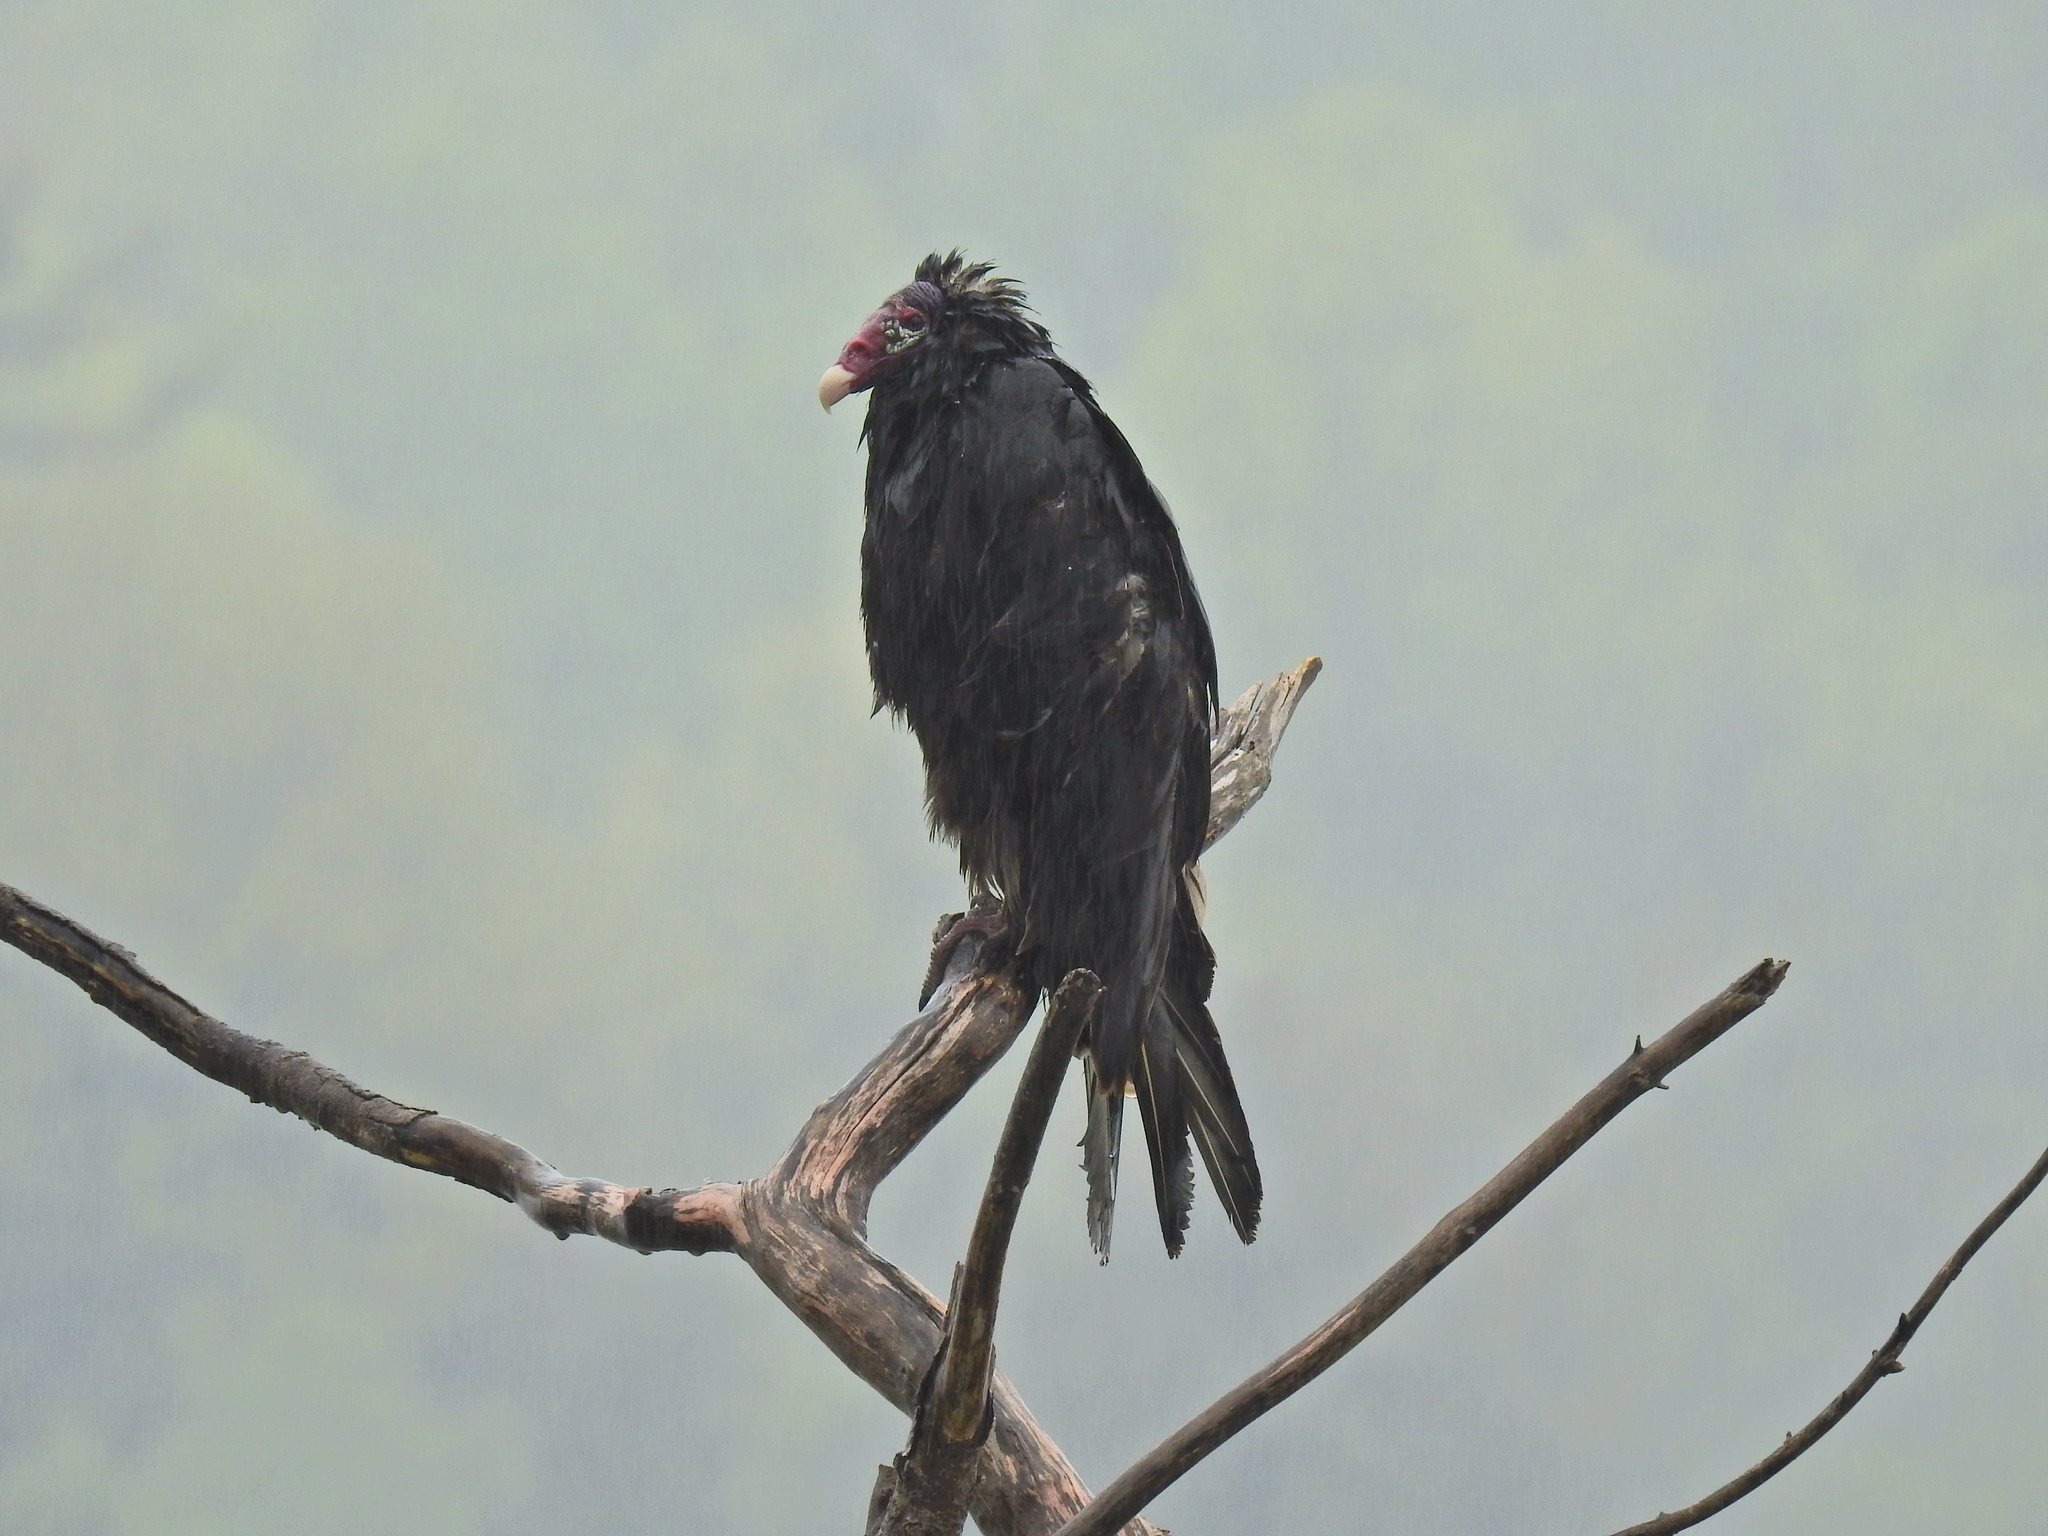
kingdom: Animalia
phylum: Chordata
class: Aves
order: Accipitriformes
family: Cathartidae
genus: Cathartes
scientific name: Cathartes aura
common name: Turkey vulture
